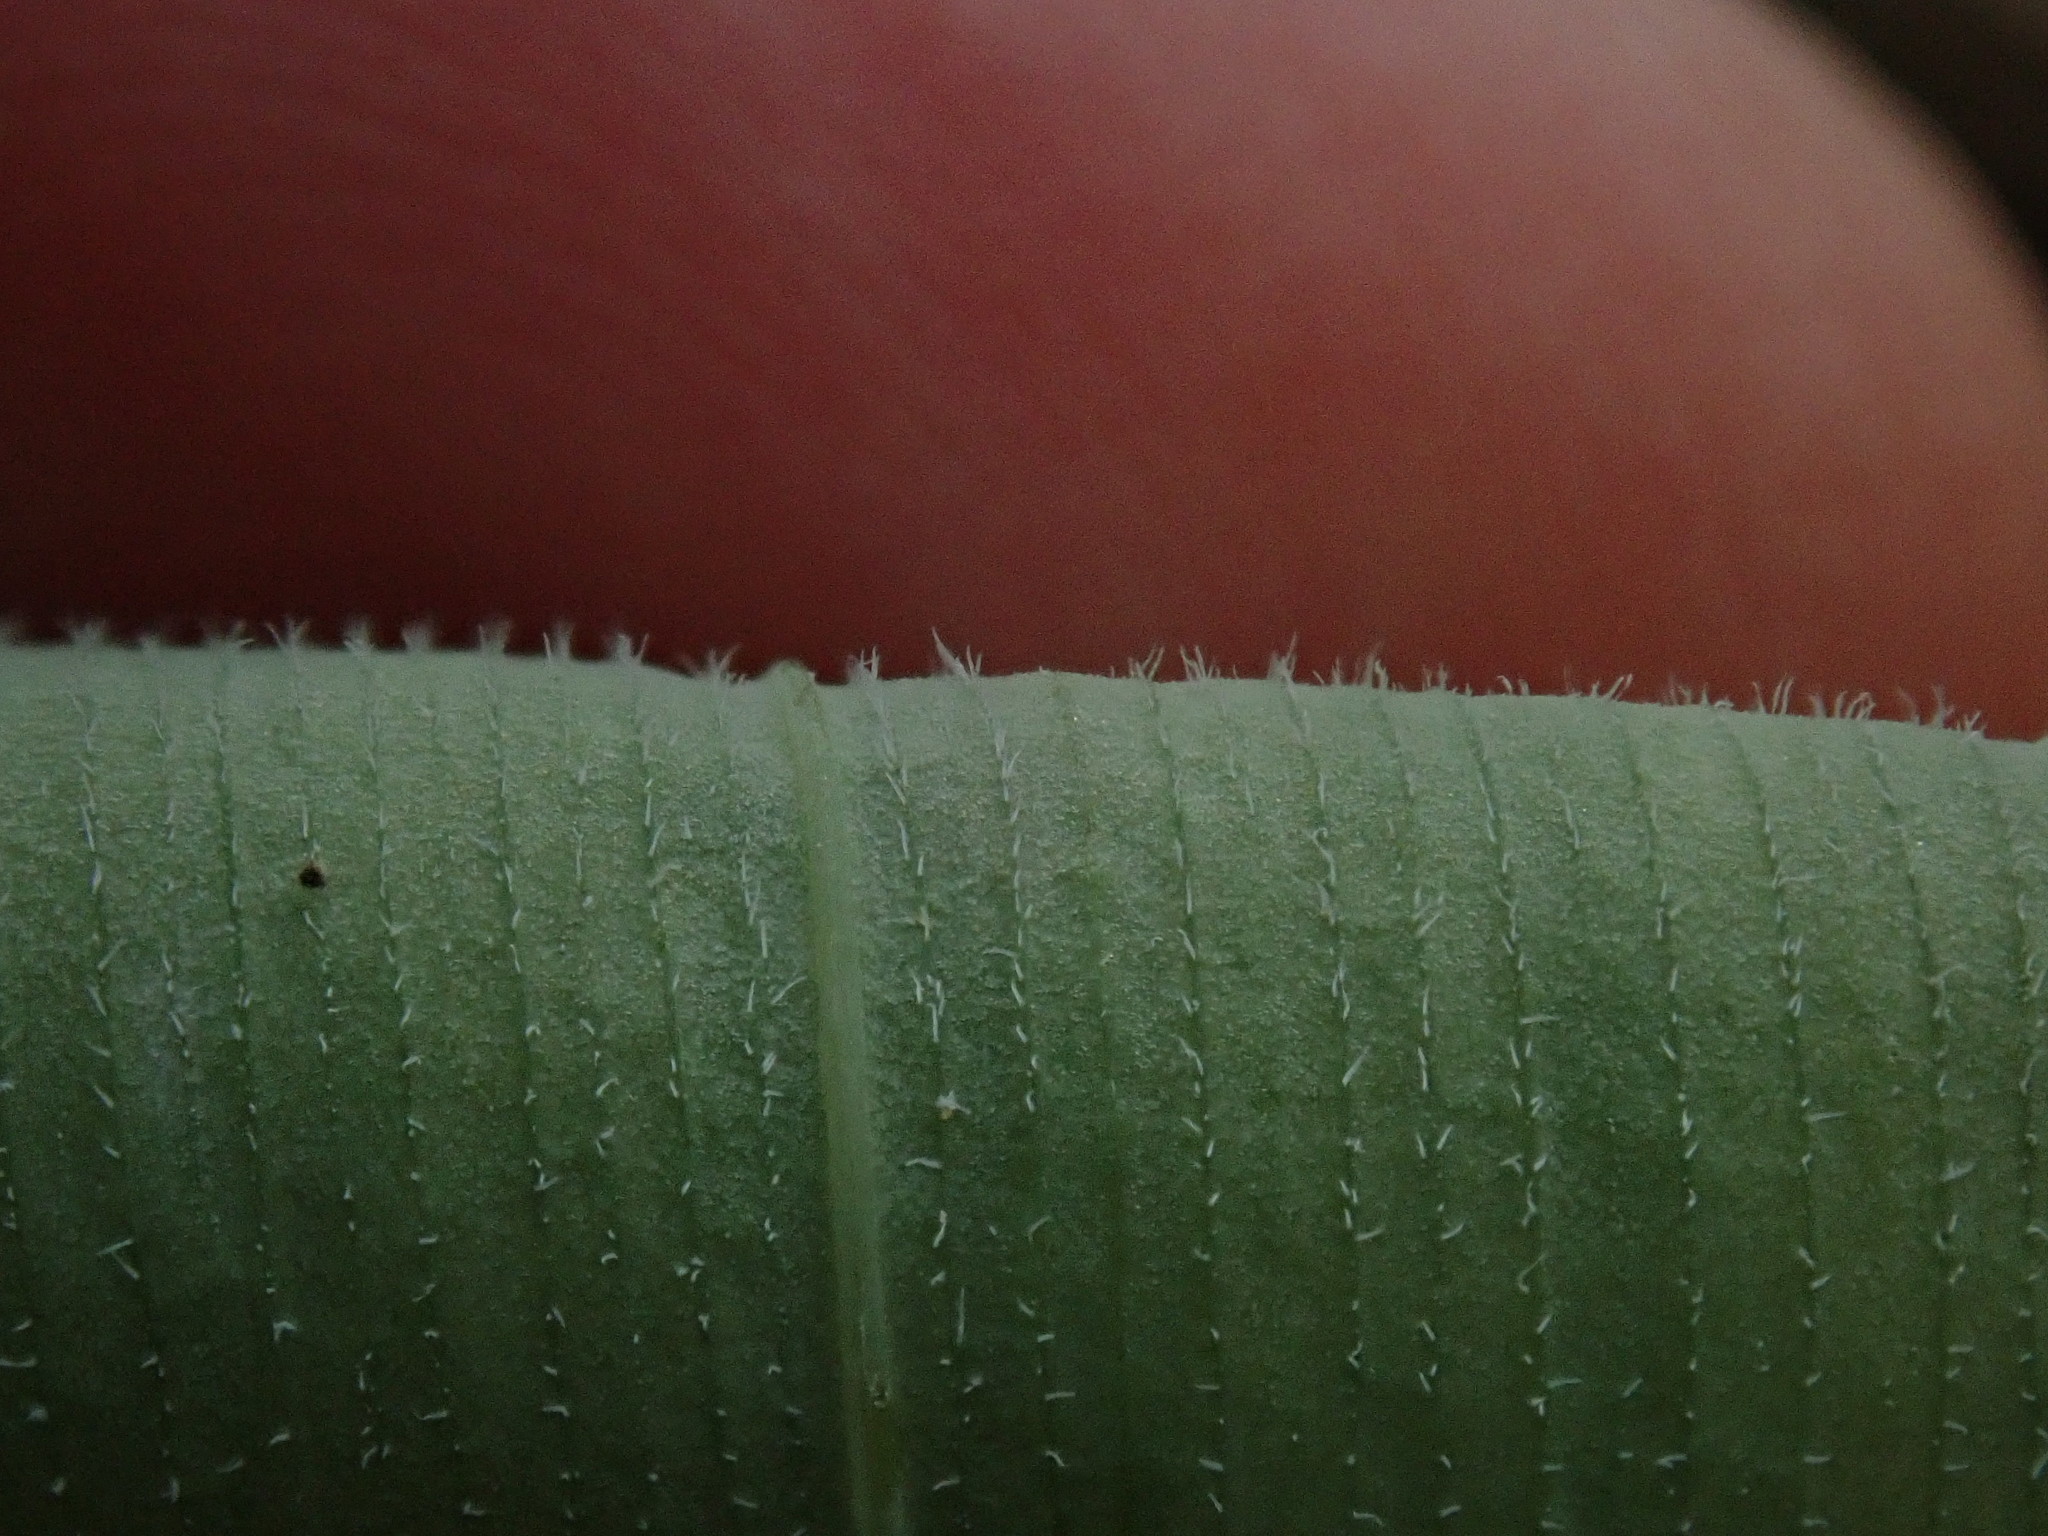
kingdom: Plantae
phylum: Tracheophyta
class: Liliopsida
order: Asparagales
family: Asparagaceae
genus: Polygonatum
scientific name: Polygonatum pubescens
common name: Downy solomon's seal
